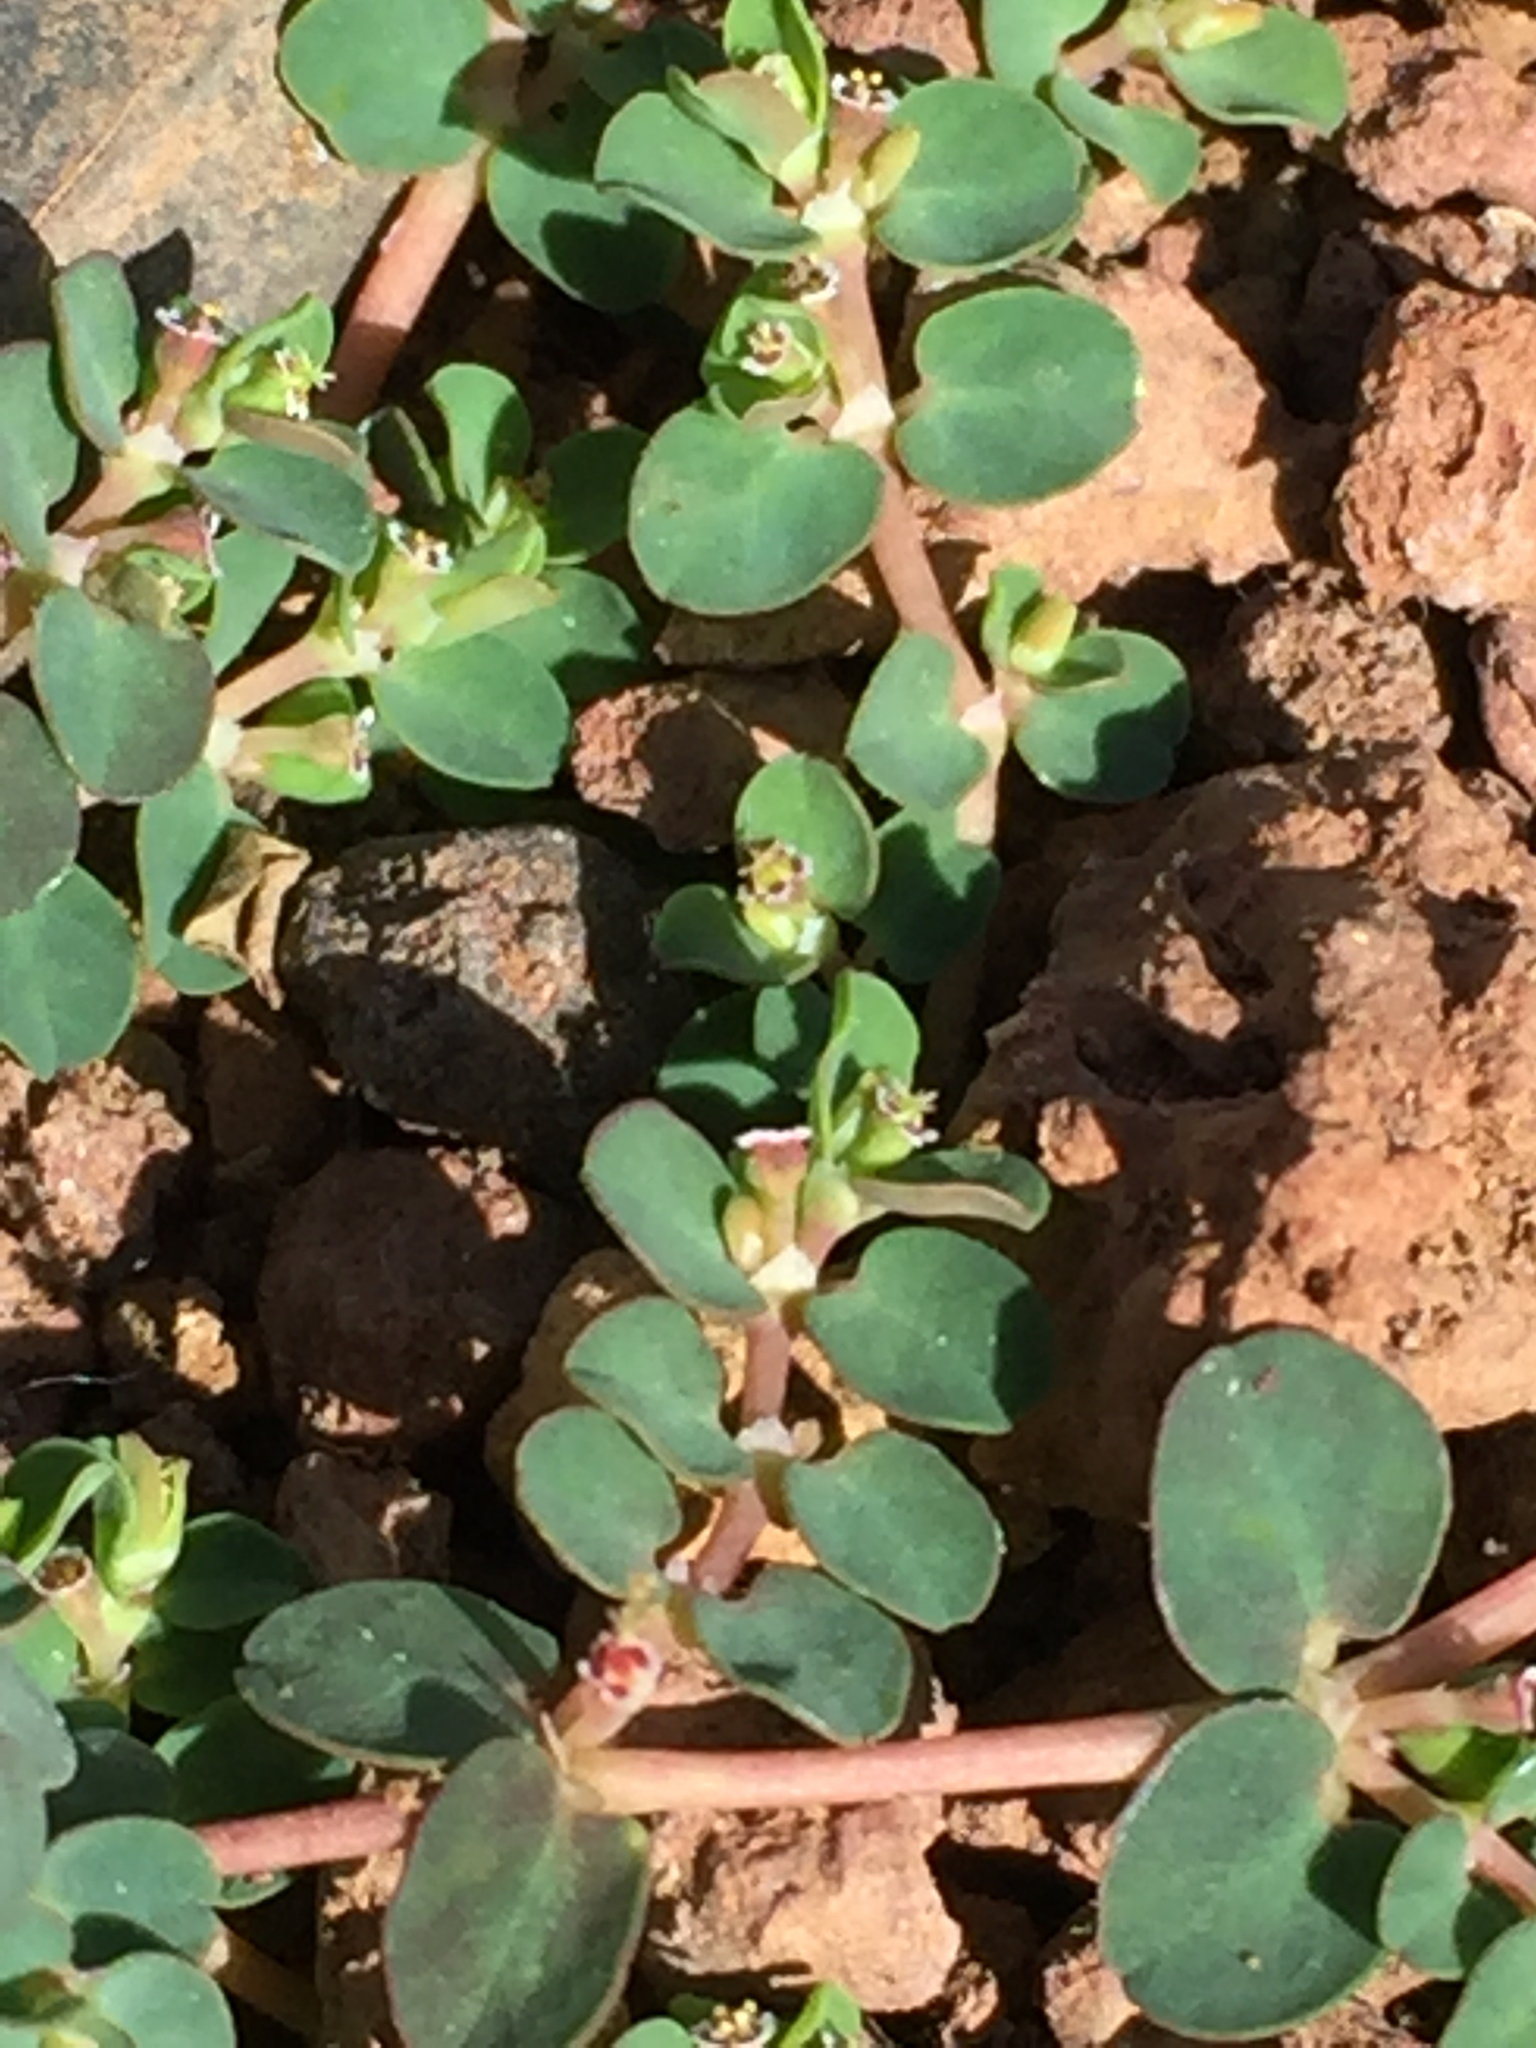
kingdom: Plantae
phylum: Tracheophyta
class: Magnoliopsida
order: Malpighiales
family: Euphorbiaceae
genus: Euphorbia
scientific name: Euphorbia serpens
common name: Matted sandmat
